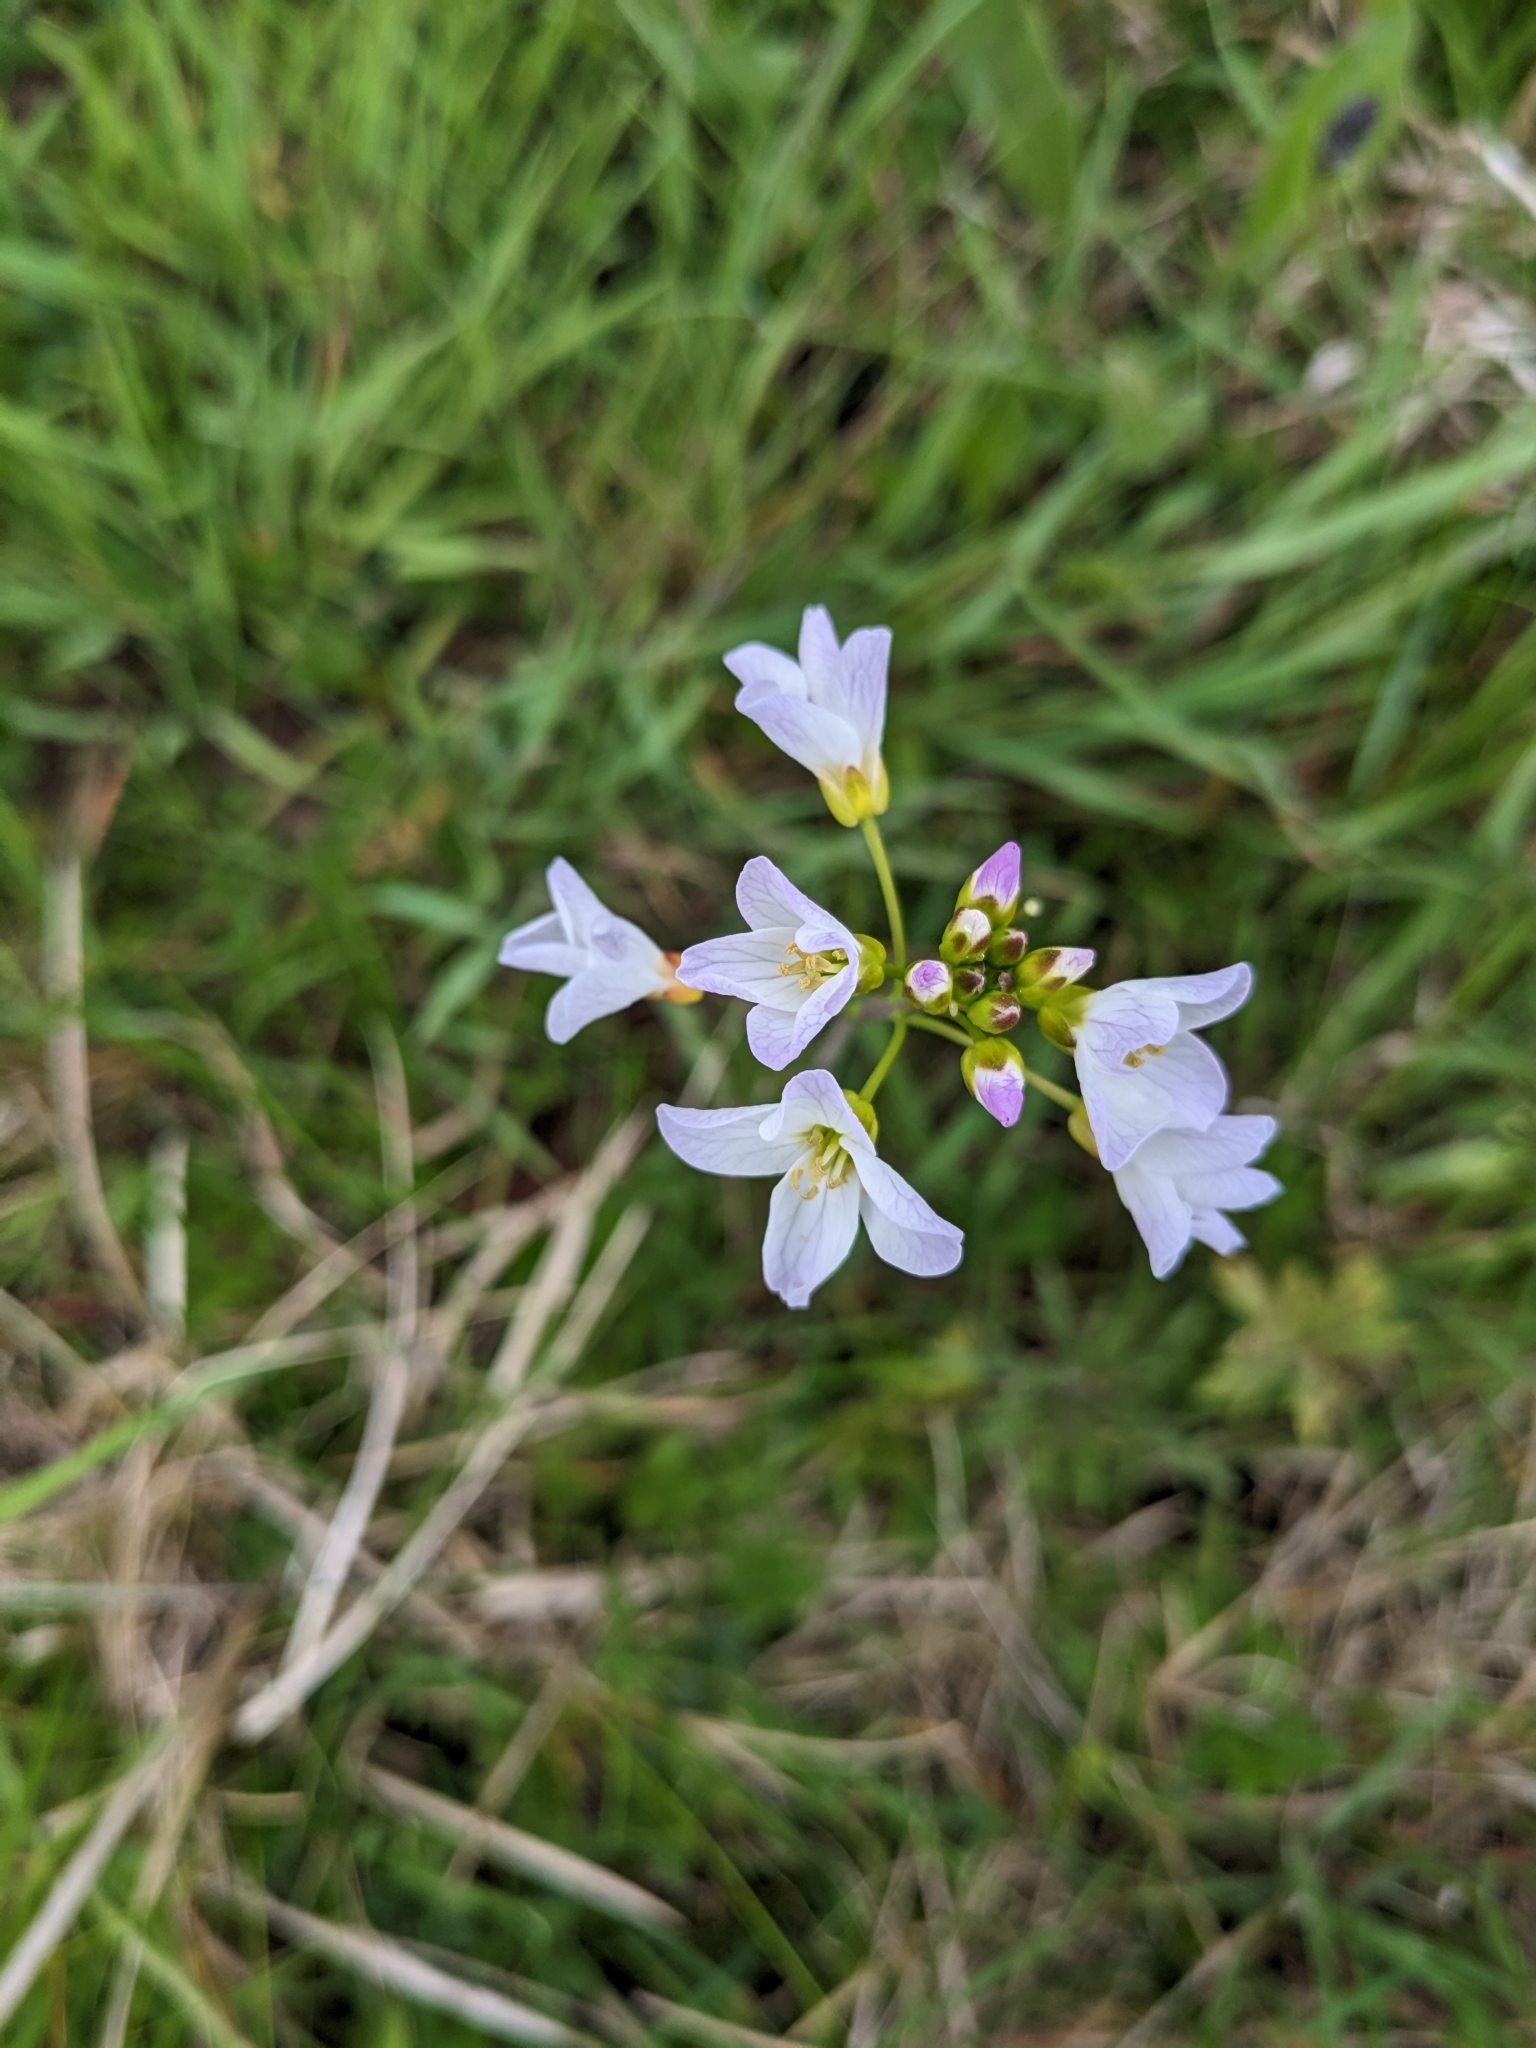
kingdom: Plantae
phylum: Tracheophyta
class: Magnoliopsida
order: Brassicales
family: Brassicaceae
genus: Cardamine
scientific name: Cardamine pratensis
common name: Cuckoo flower
